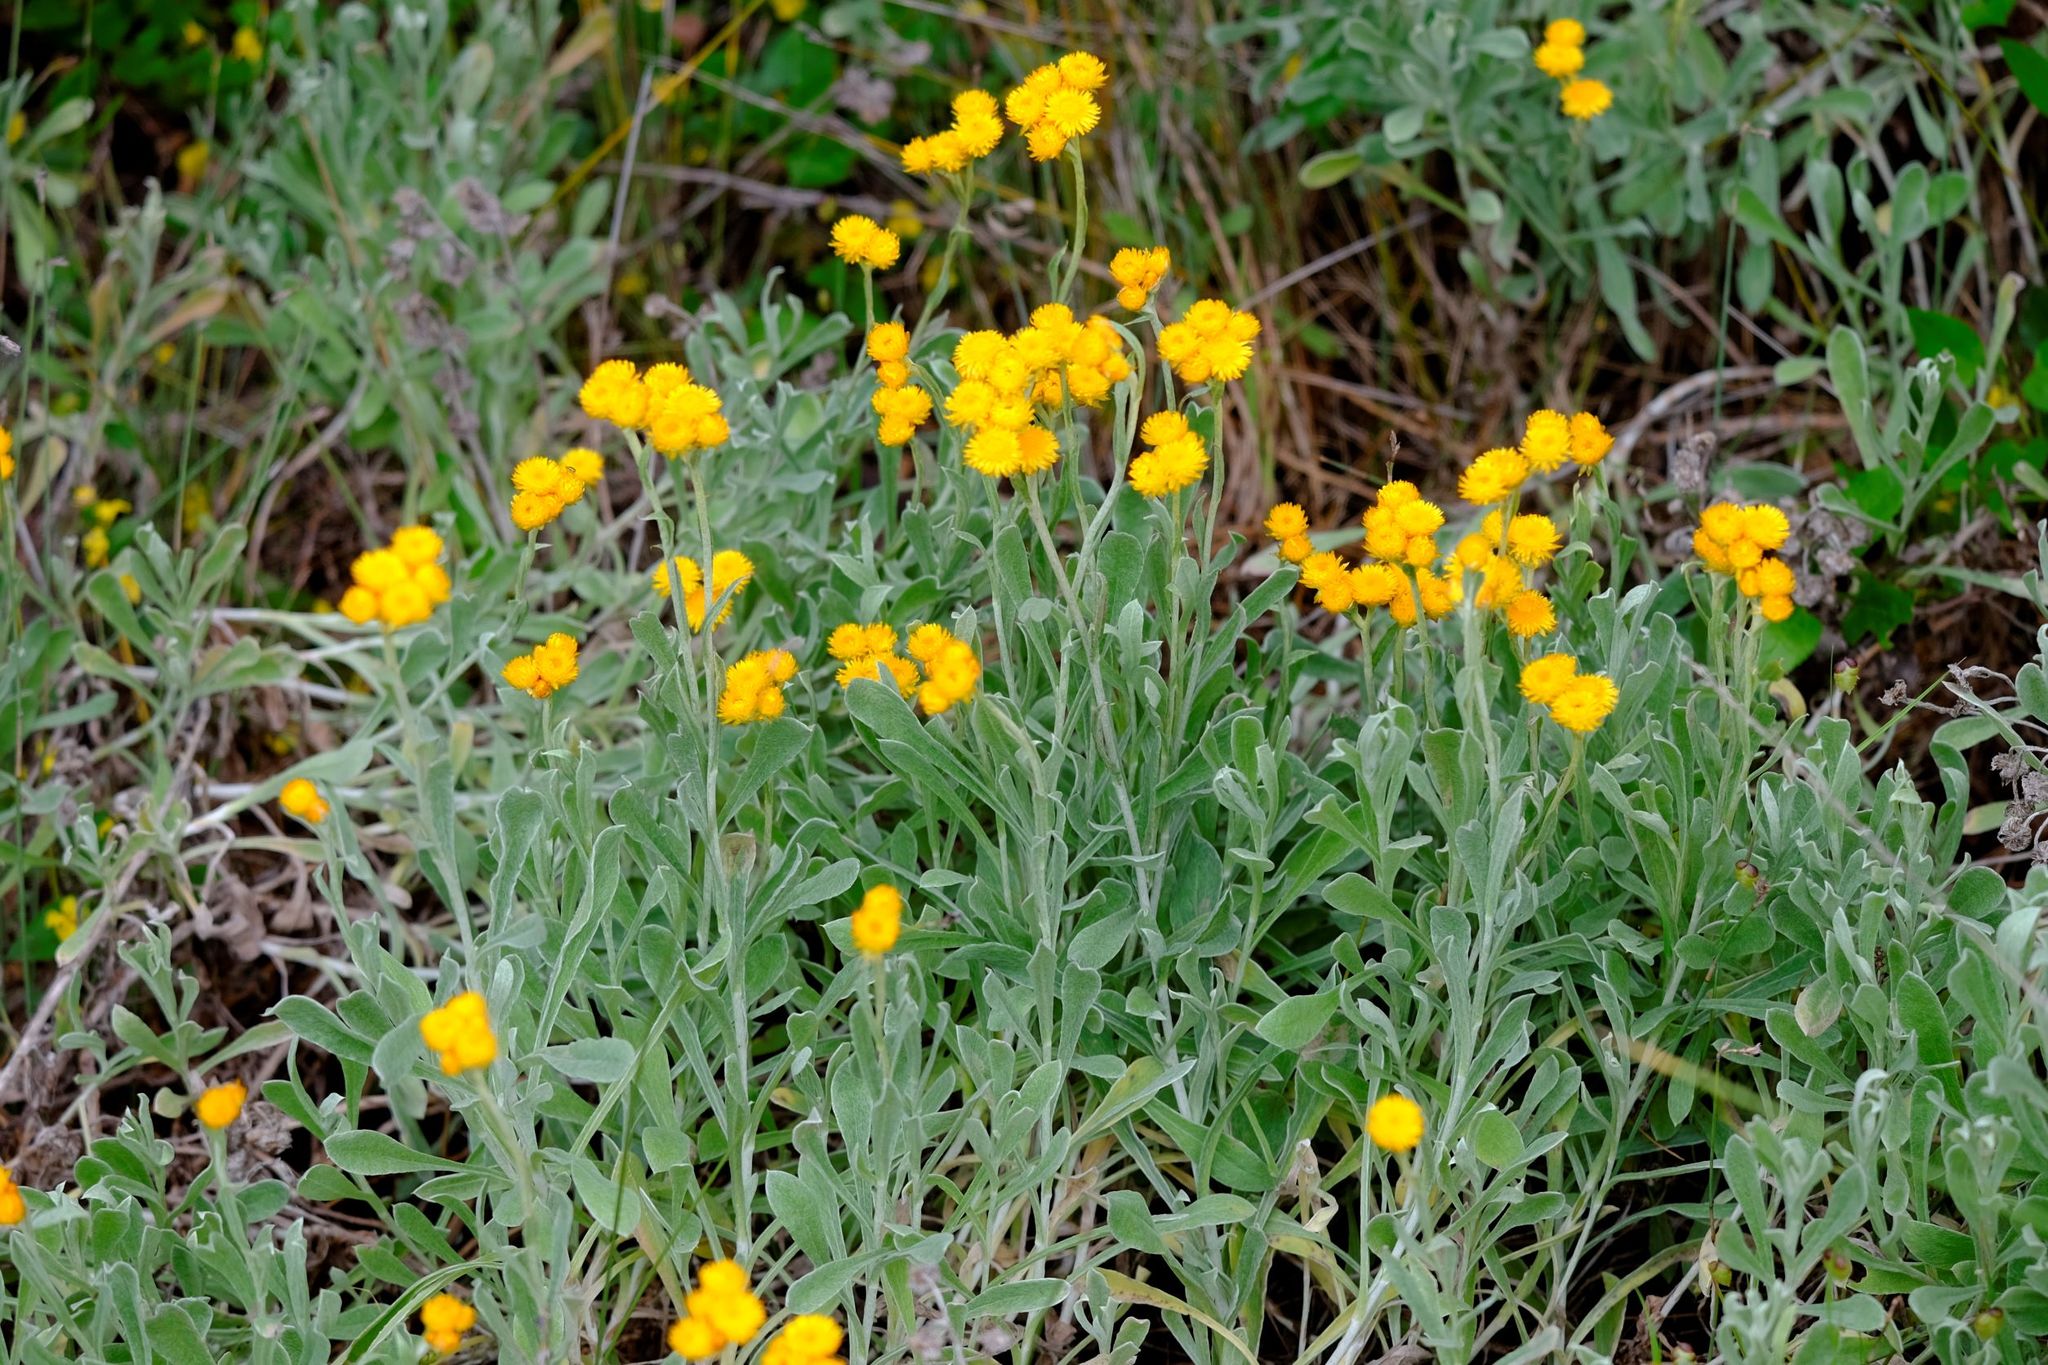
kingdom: Plantae
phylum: Tracheophyta
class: Magnoliopsida
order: Asterales
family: Asteraceae
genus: Chrysocephalum
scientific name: Chrysocephalum apiculatum
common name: Common everlasting
